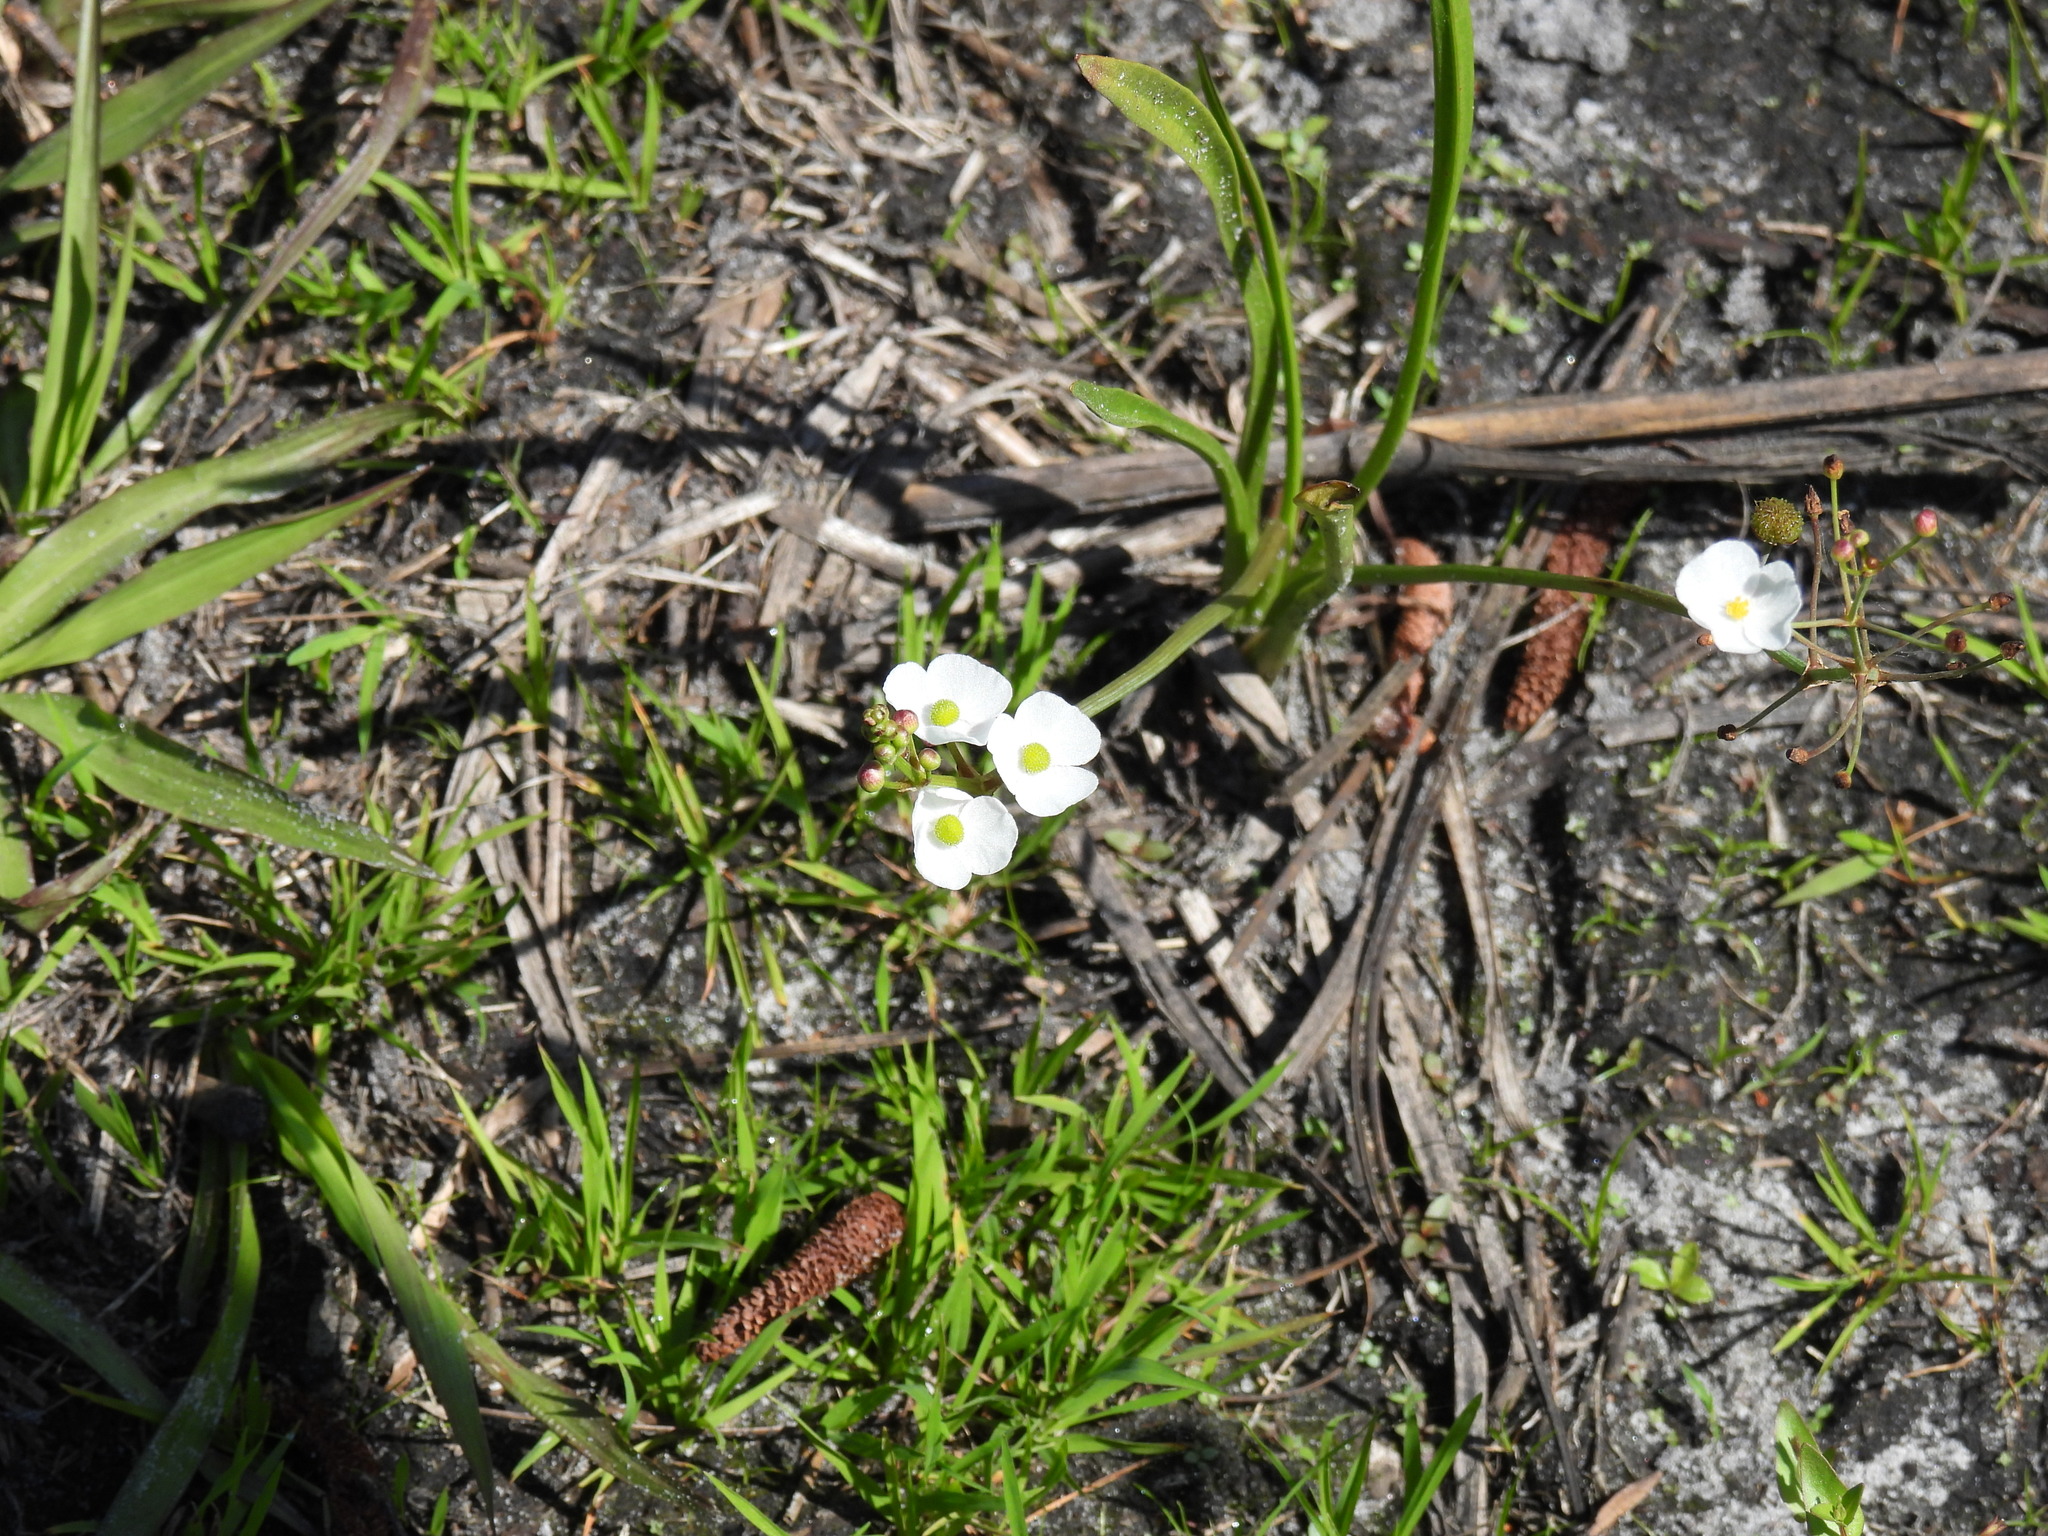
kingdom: Plantae
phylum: Tracheophyta
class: Liliopsida
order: Alismatales
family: Alismataceae
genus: Sagittaria
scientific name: Sagittaria graminea
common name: Grass-leaved arrowhead
